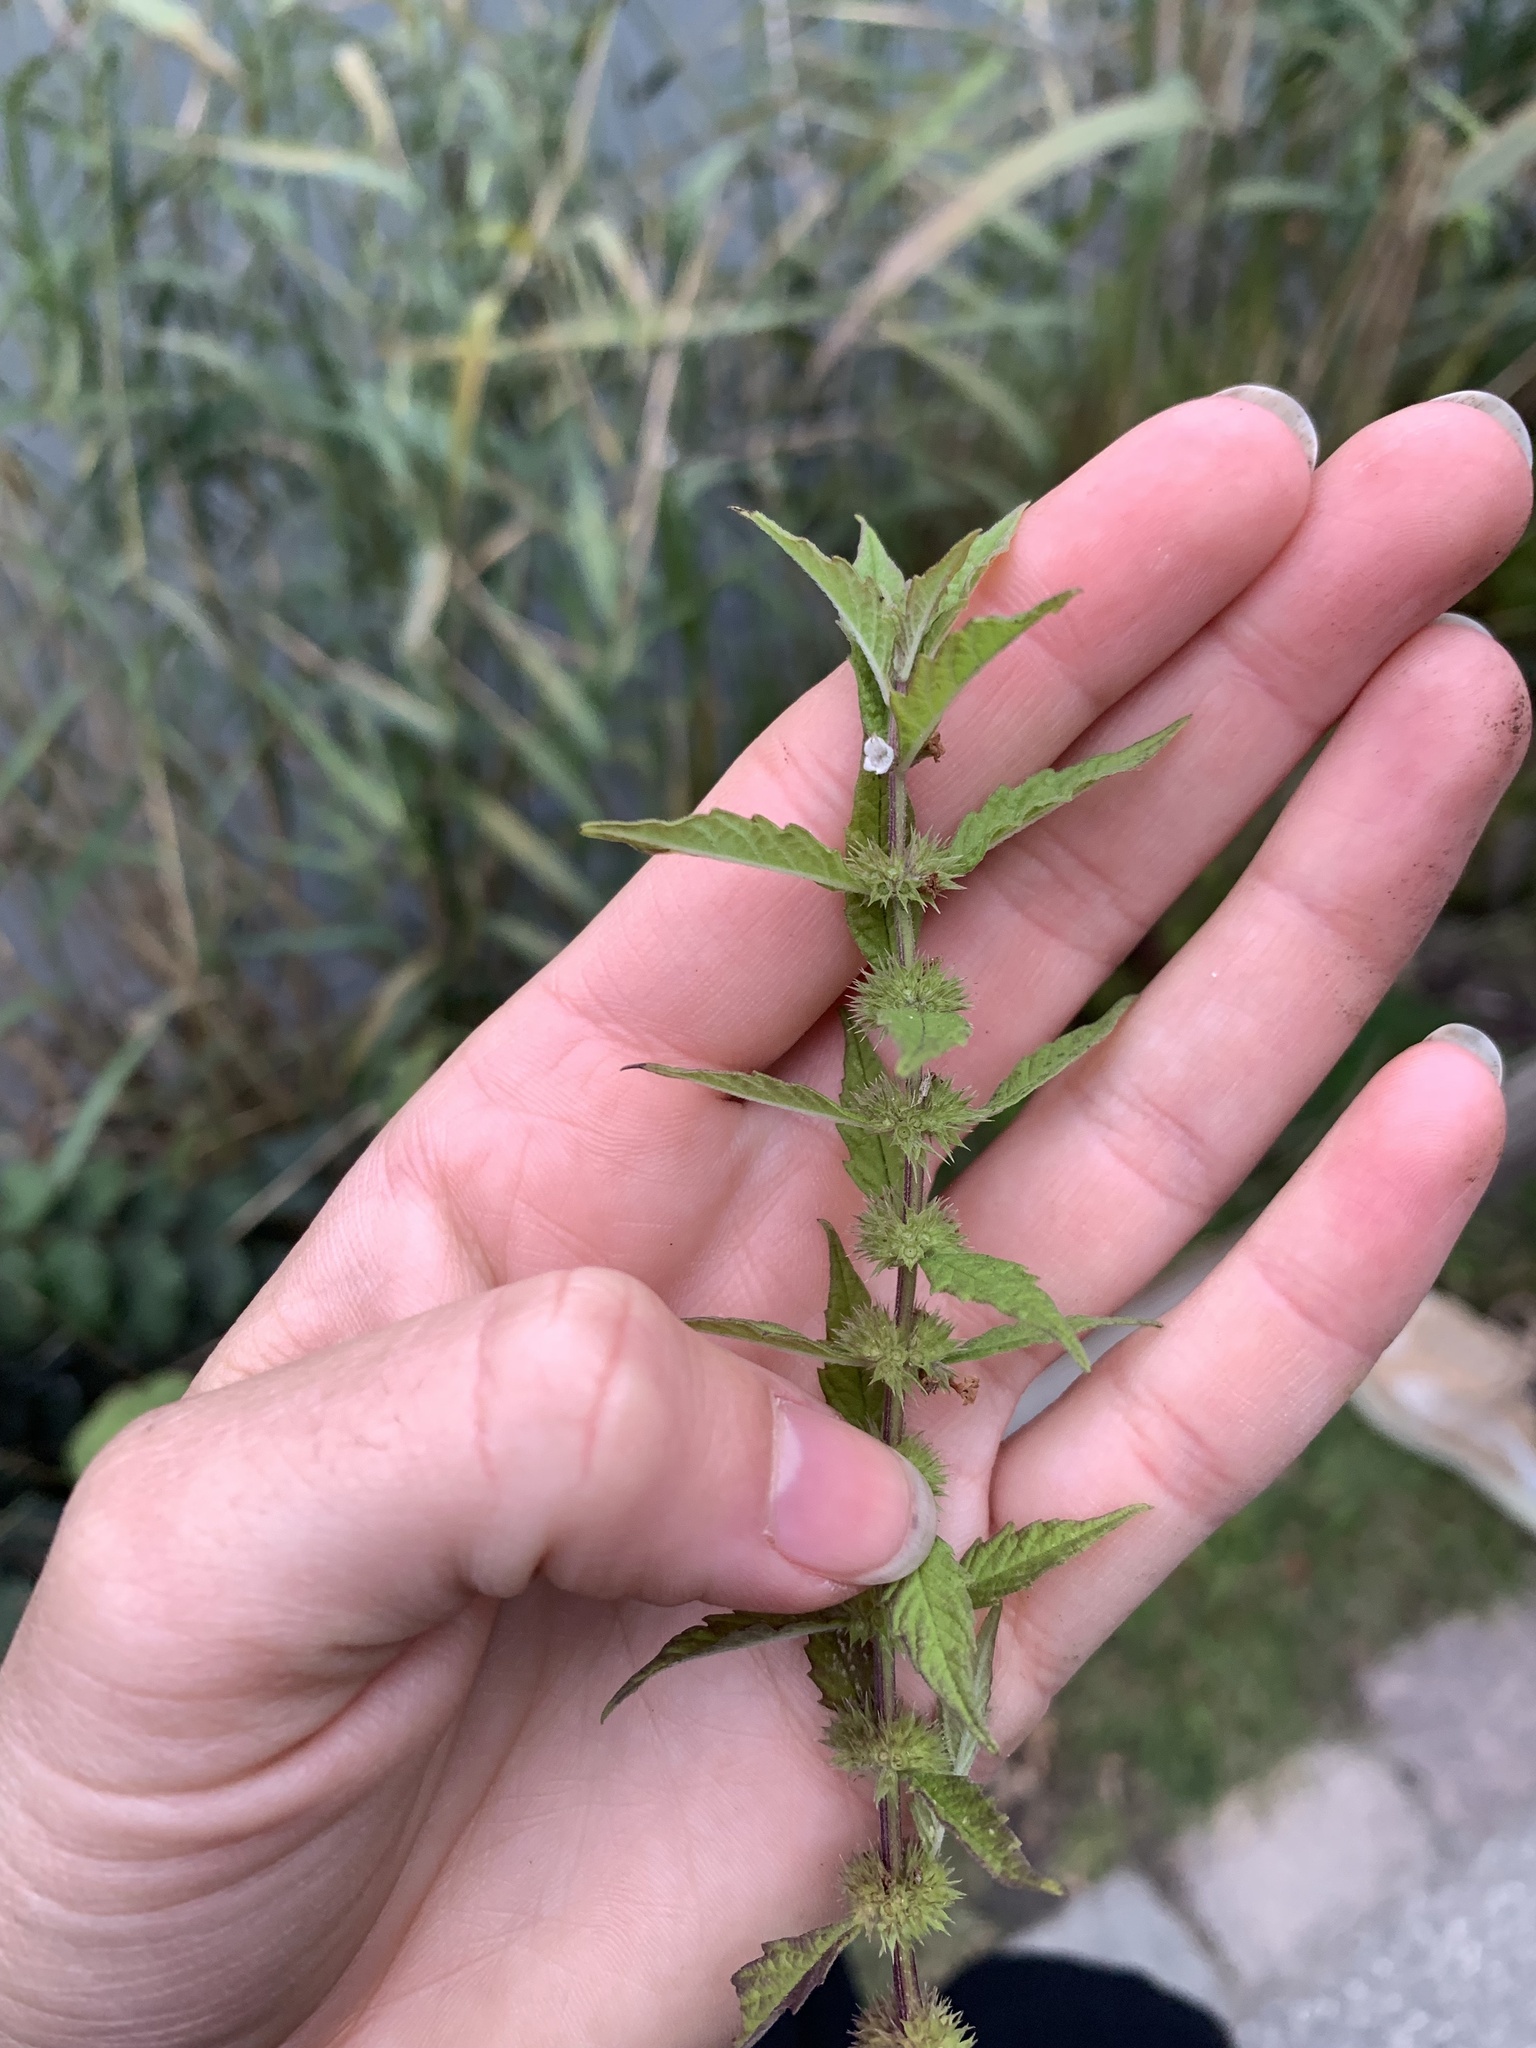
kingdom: Plantae
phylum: Tracheophyta
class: Magnoliopsida
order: Lamiales
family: Lamiaceae
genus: Lycopus
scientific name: Lycopus europaeus
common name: European bugleweed
